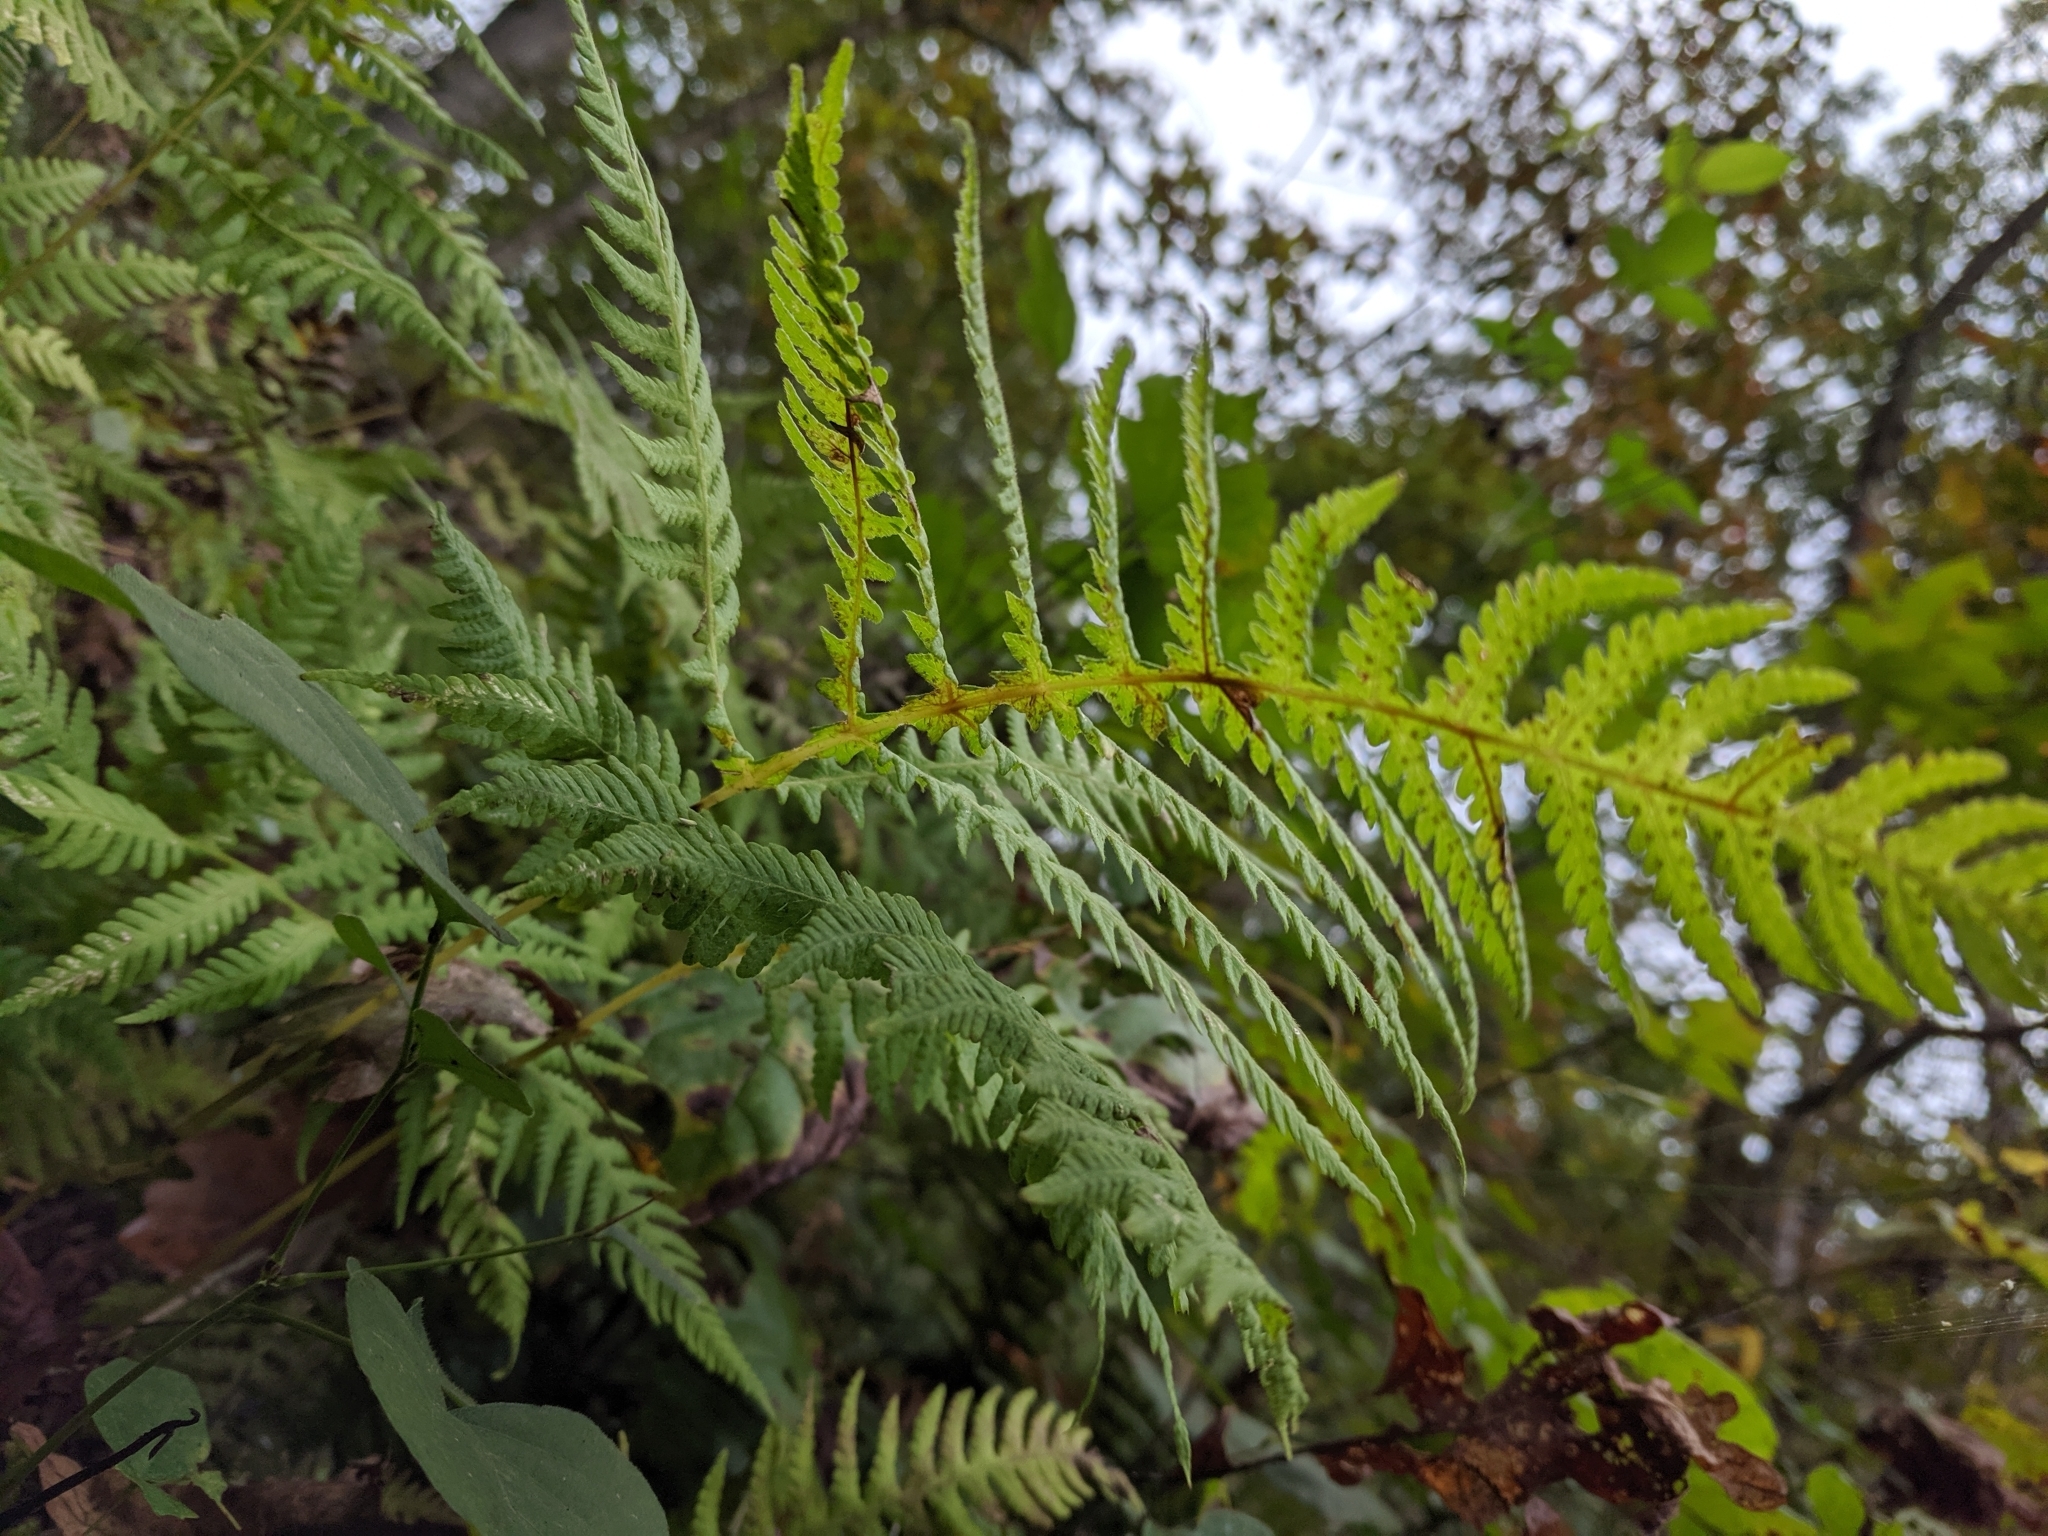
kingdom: Plantae
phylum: Tracheophyta
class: Polypodiopsida
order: Polypodiales
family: Thelypteridaceae
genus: Phegopteris
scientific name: Phegopteris hexagonoptera
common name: Broad beech fern
